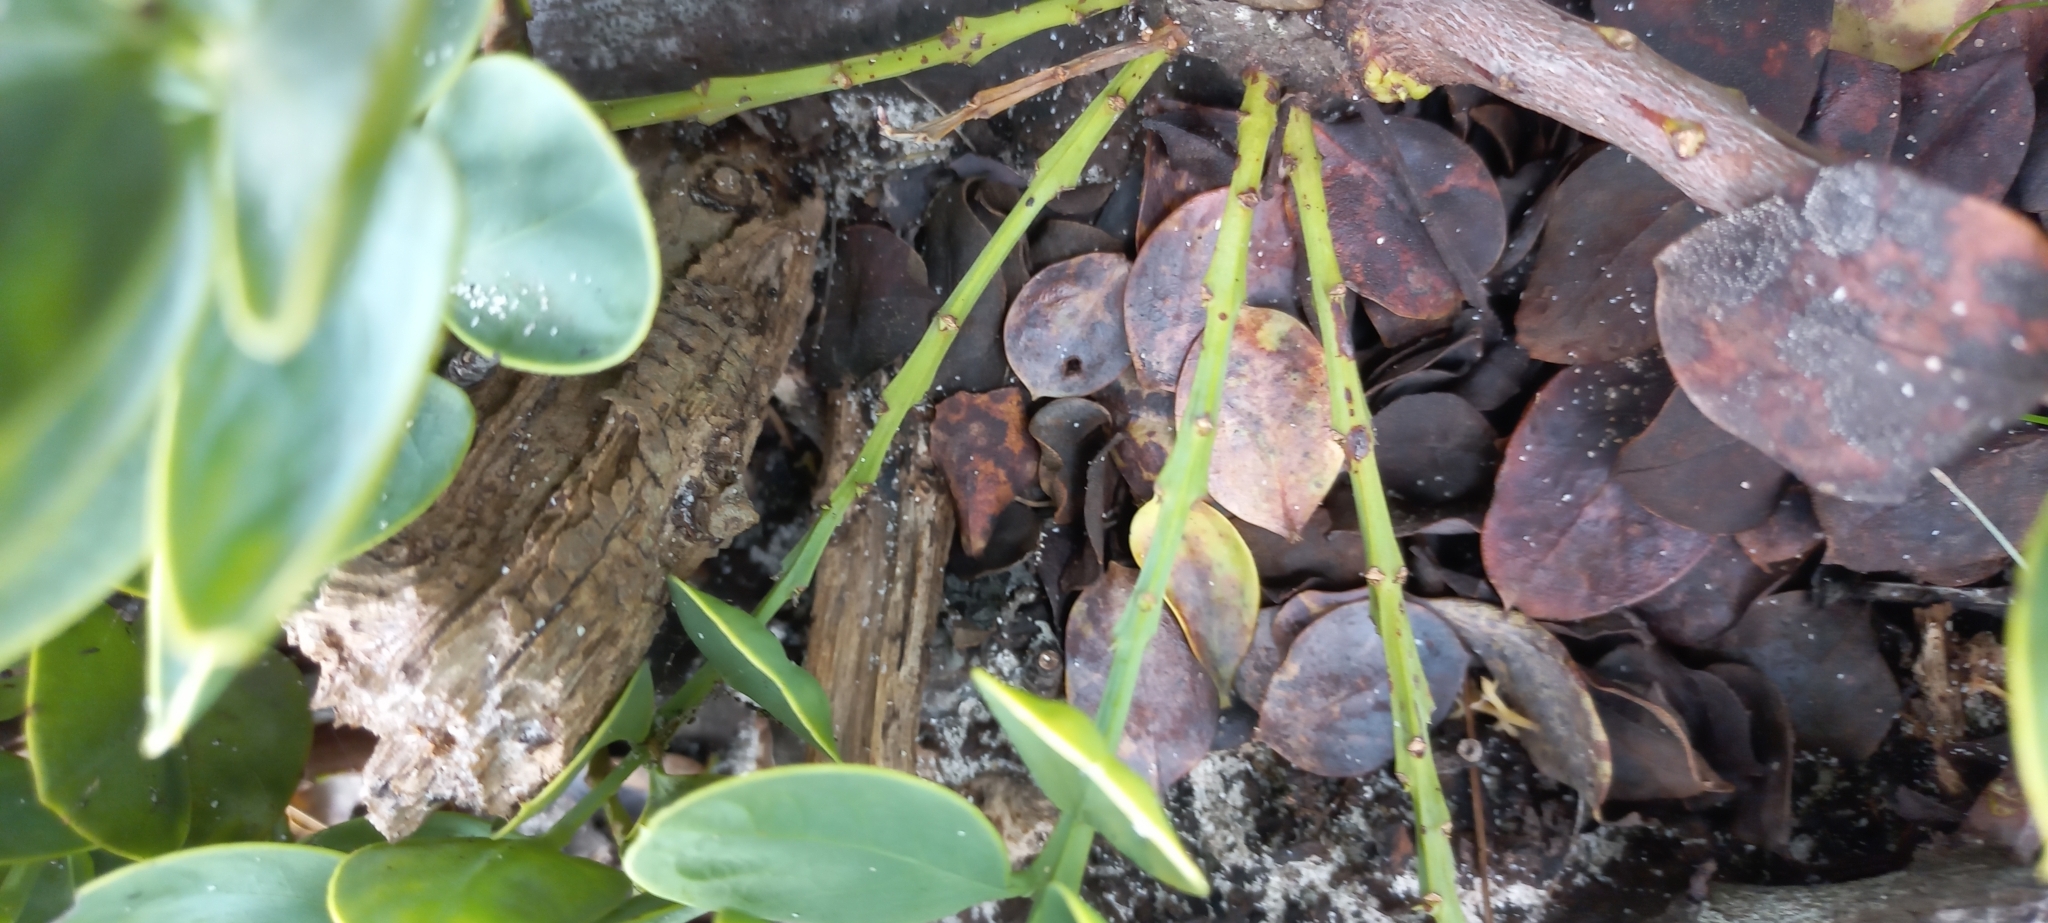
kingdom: Plantae
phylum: Tracheophyta
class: Magnoliopsida
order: Santalales
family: Santalaceae
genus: Osyris
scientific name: Osyris speciosa
